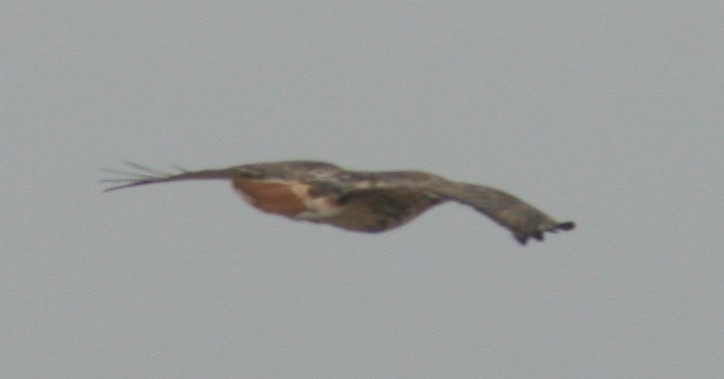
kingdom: Animalia
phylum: Chordata
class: Aves
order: Accipitriformes
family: Accipitridae
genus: Buteo
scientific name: Buteo jamaicensis
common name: Red-tailed hawk
